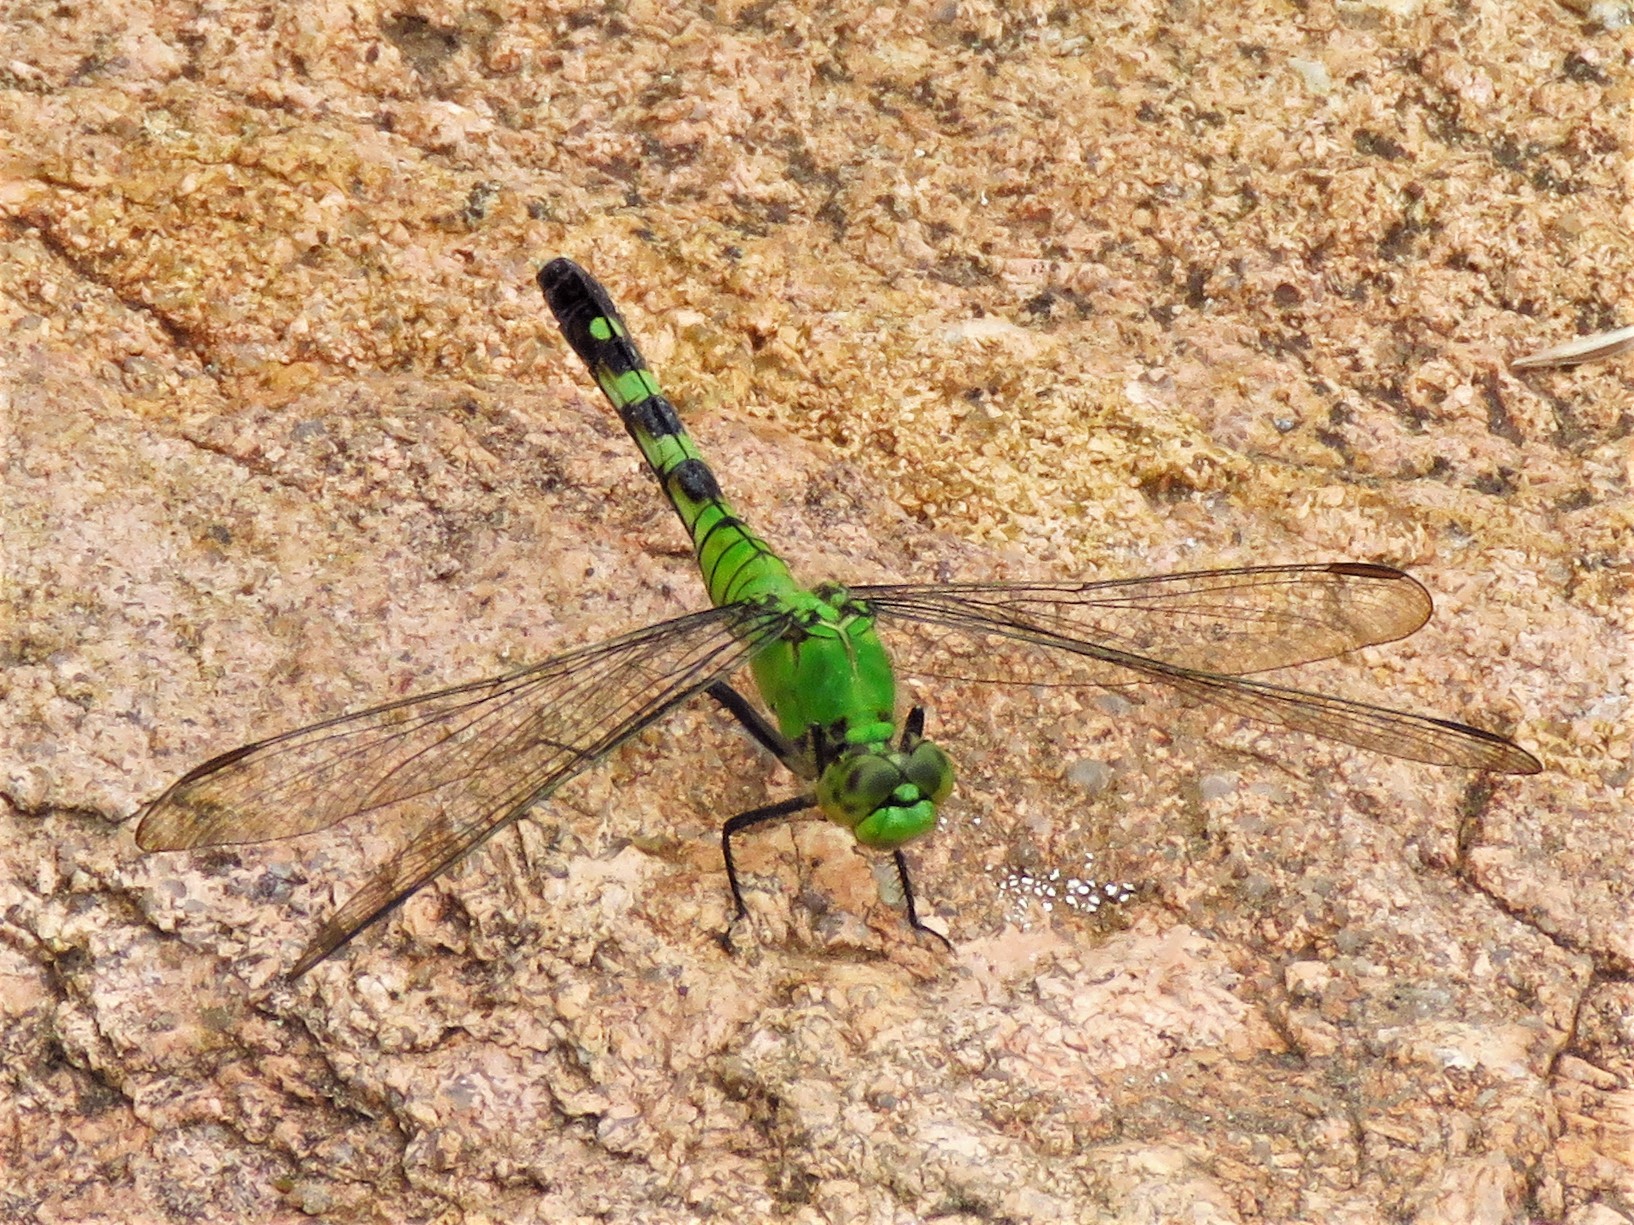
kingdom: Animalia
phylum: Arthropoda
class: Insecta
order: Odonata
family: Libellulidae
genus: Erythemis
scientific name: Erythemis simplicicollis
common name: Eastern pondhawk
